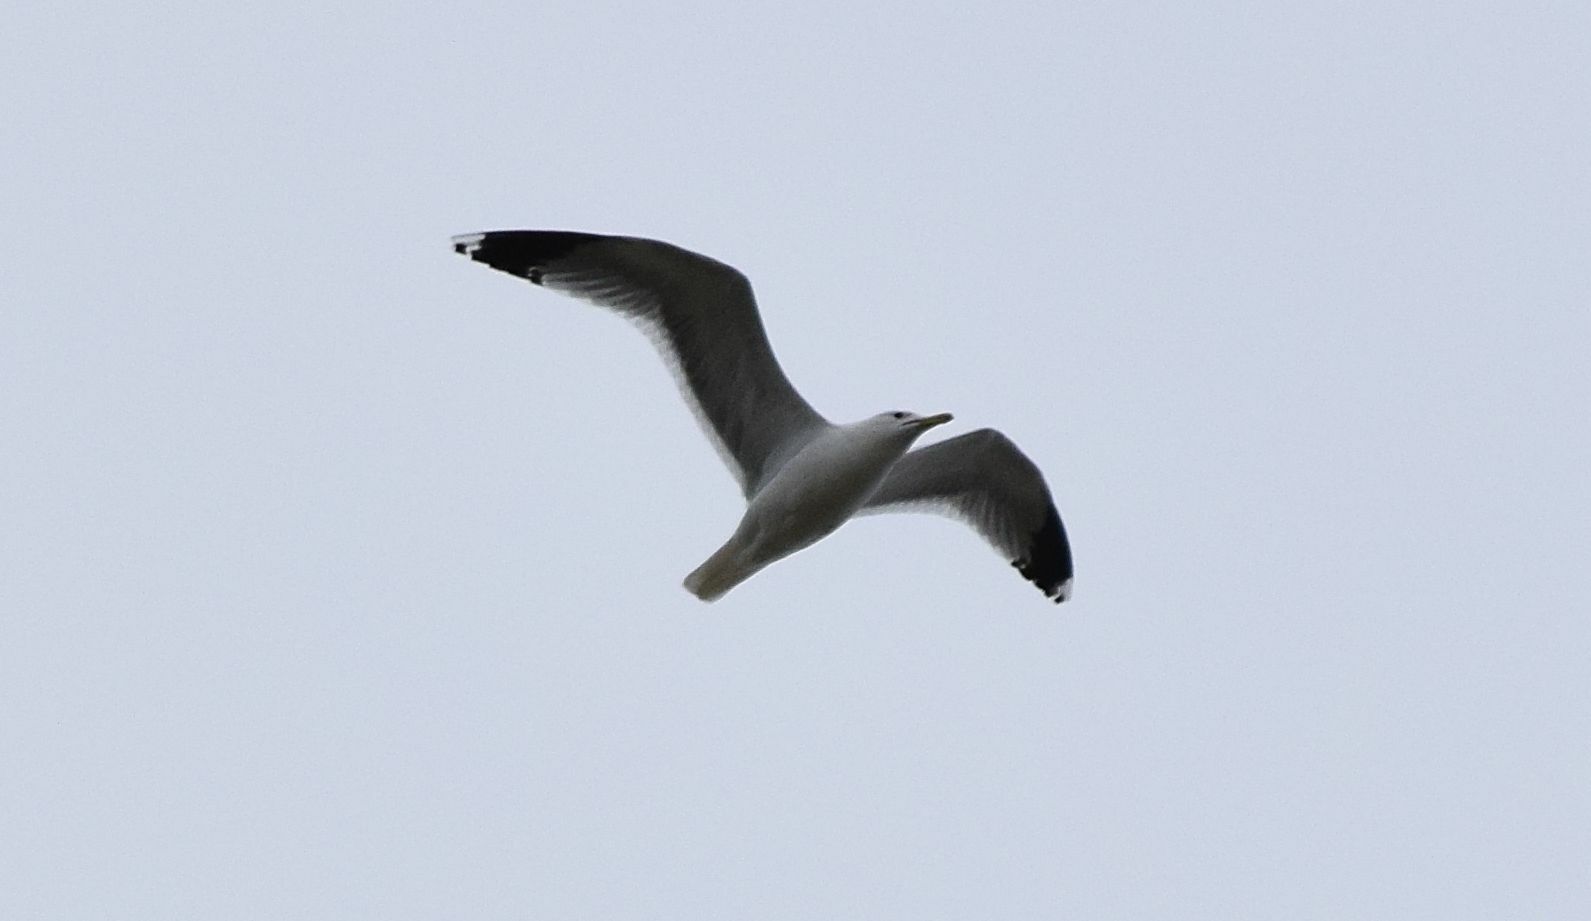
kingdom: Animalia
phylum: Chordata
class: Aves
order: Charadriiformes
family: Laridae
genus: Larus
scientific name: Larus californicus
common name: California gull
